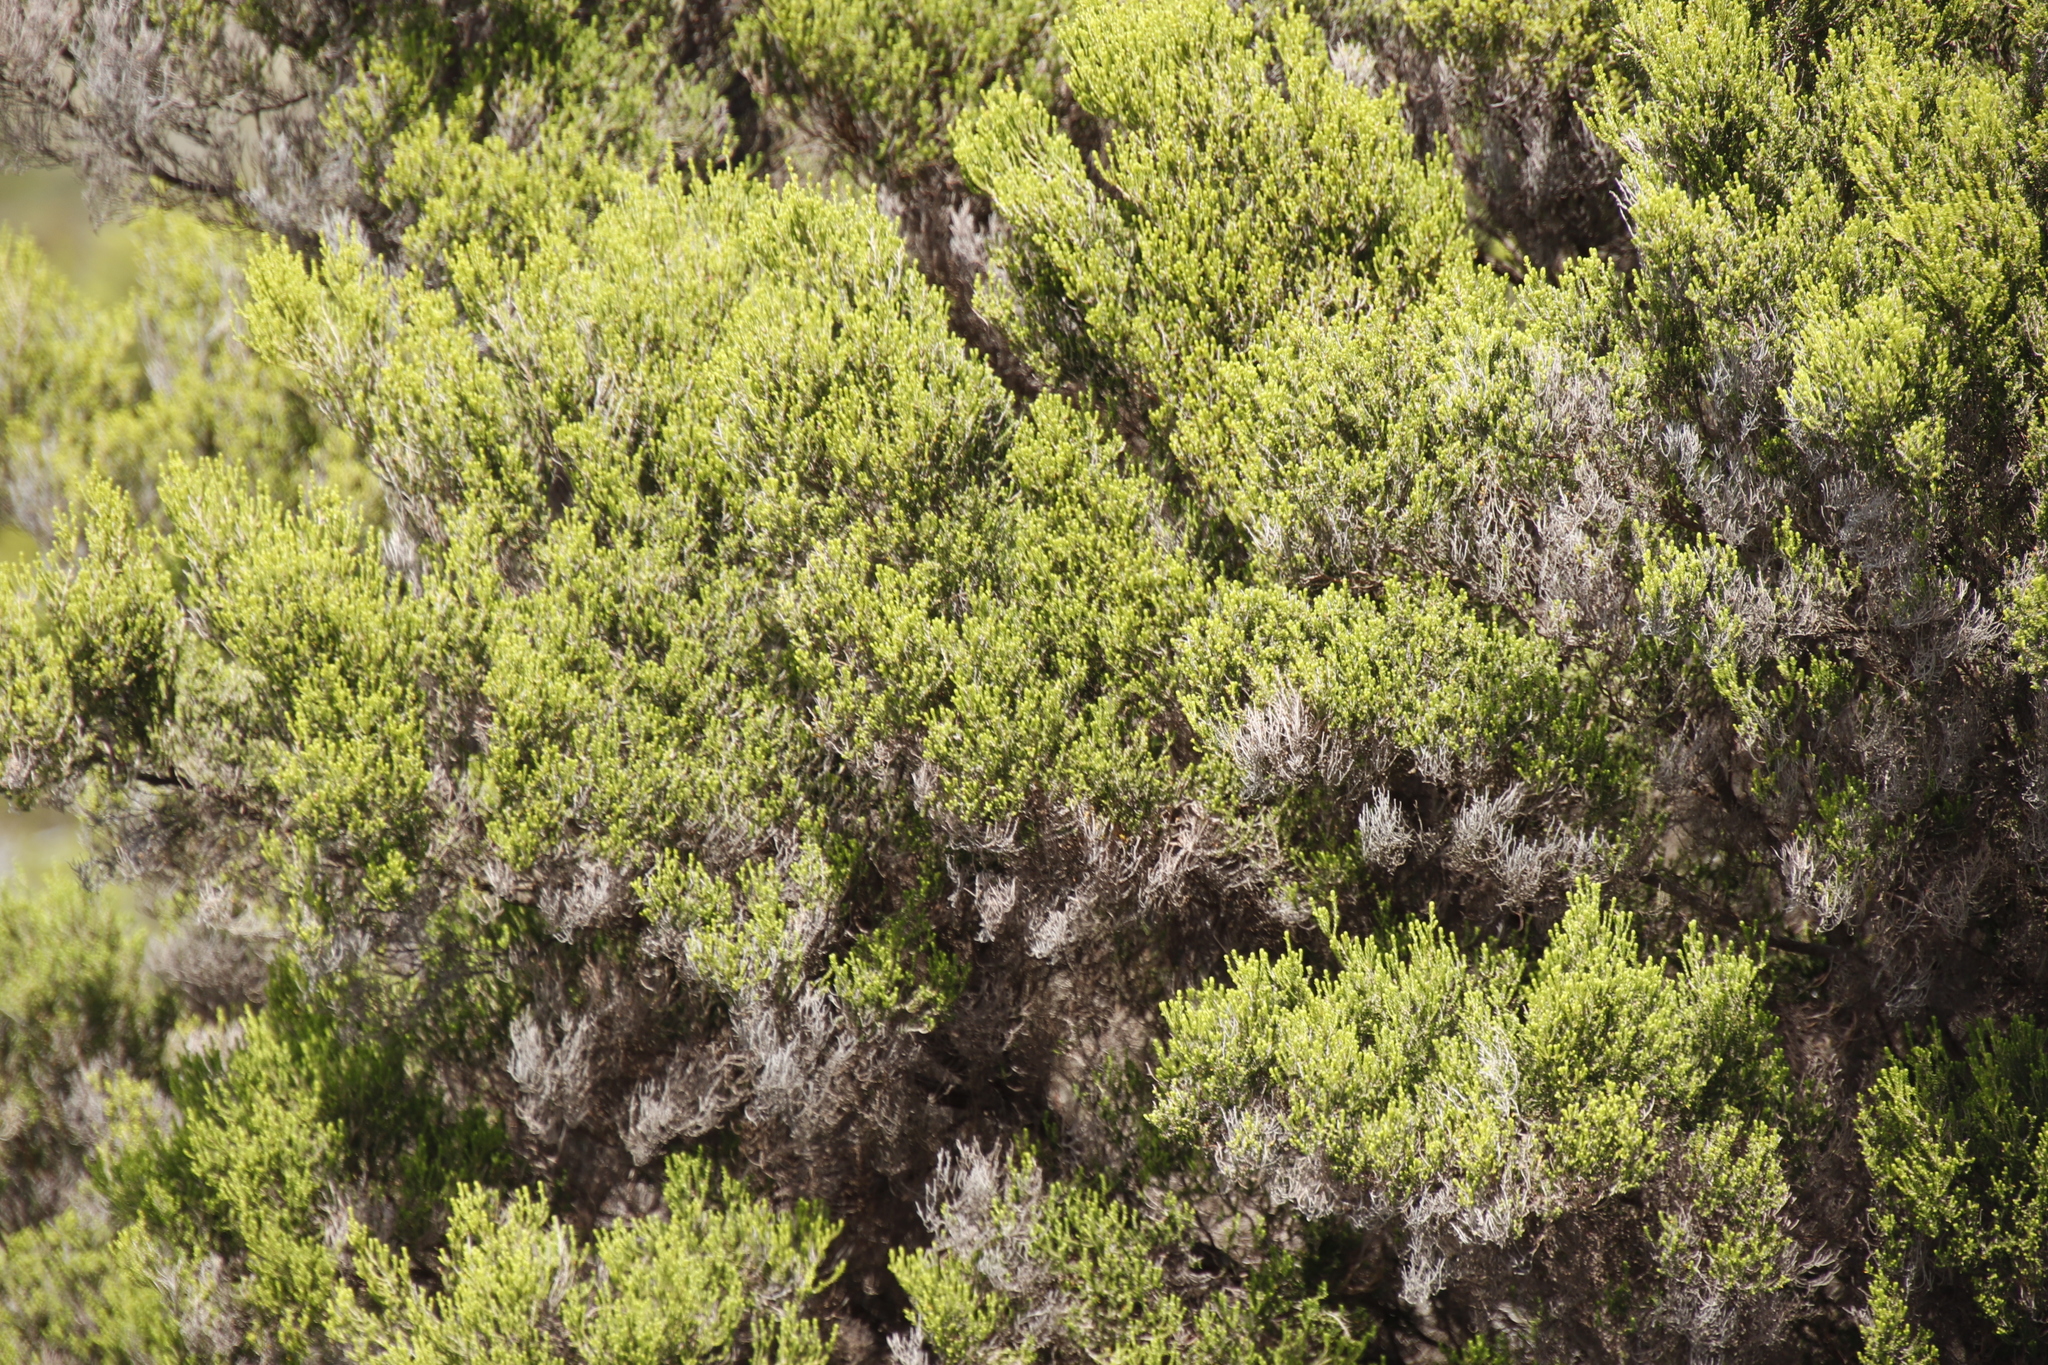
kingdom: Plantae
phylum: Tracheophyta
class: Magnoliopsida
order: Ericales
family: Ericaceae
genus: Erica
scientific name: Erica tristis
